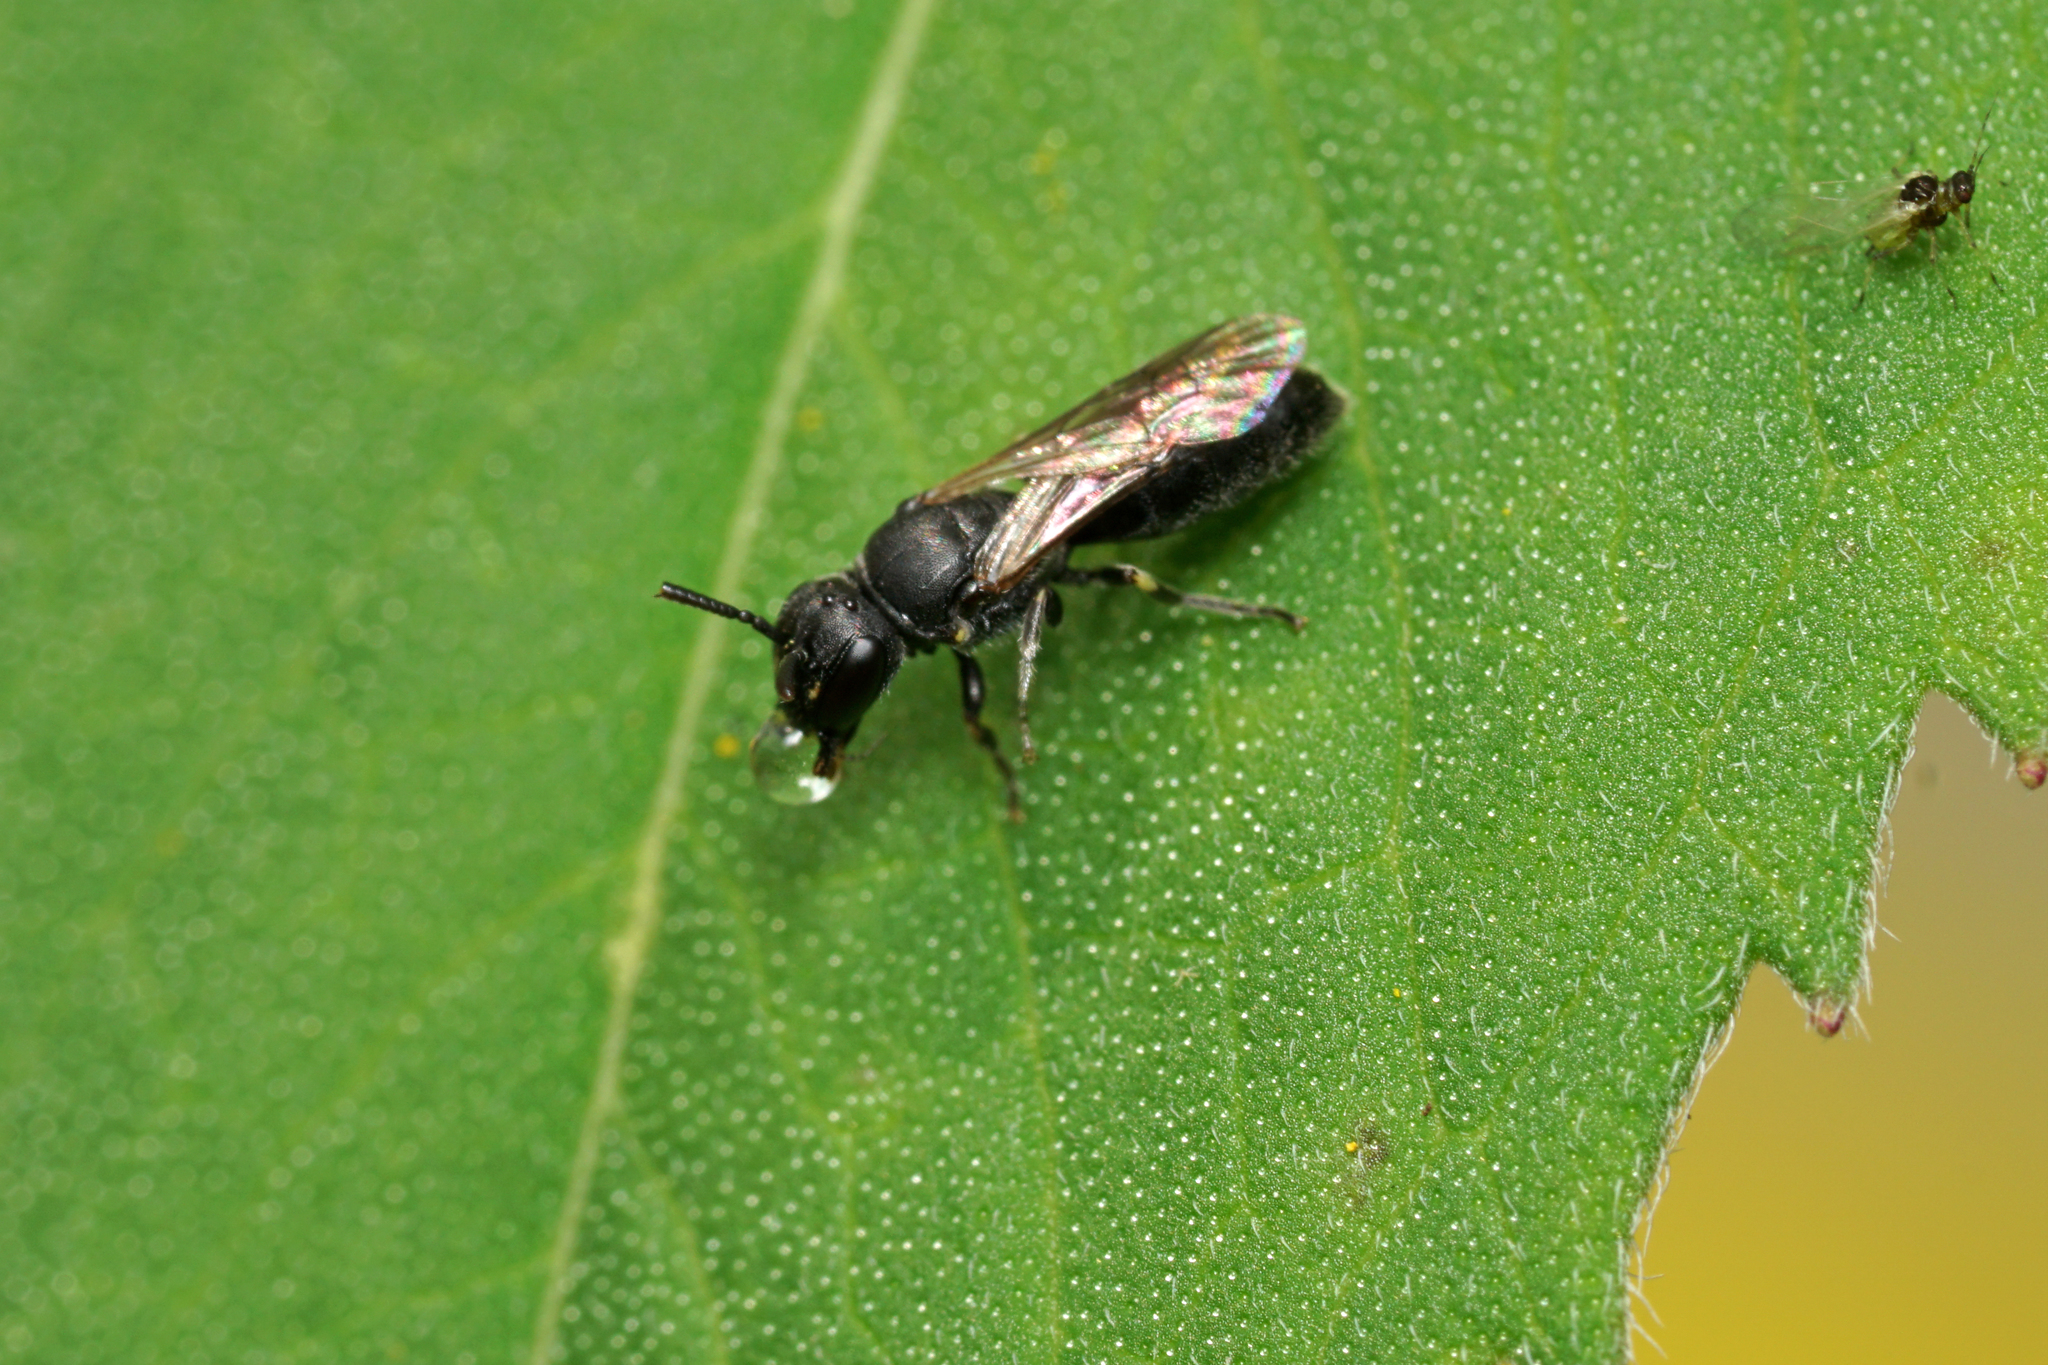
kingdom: Animalia
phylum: Arthropoda
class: Insecta
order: Hymenoptera
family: Colletidae
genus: Hylaeus
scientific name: Hylaeus mesillae
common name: Mesilla masked bee
